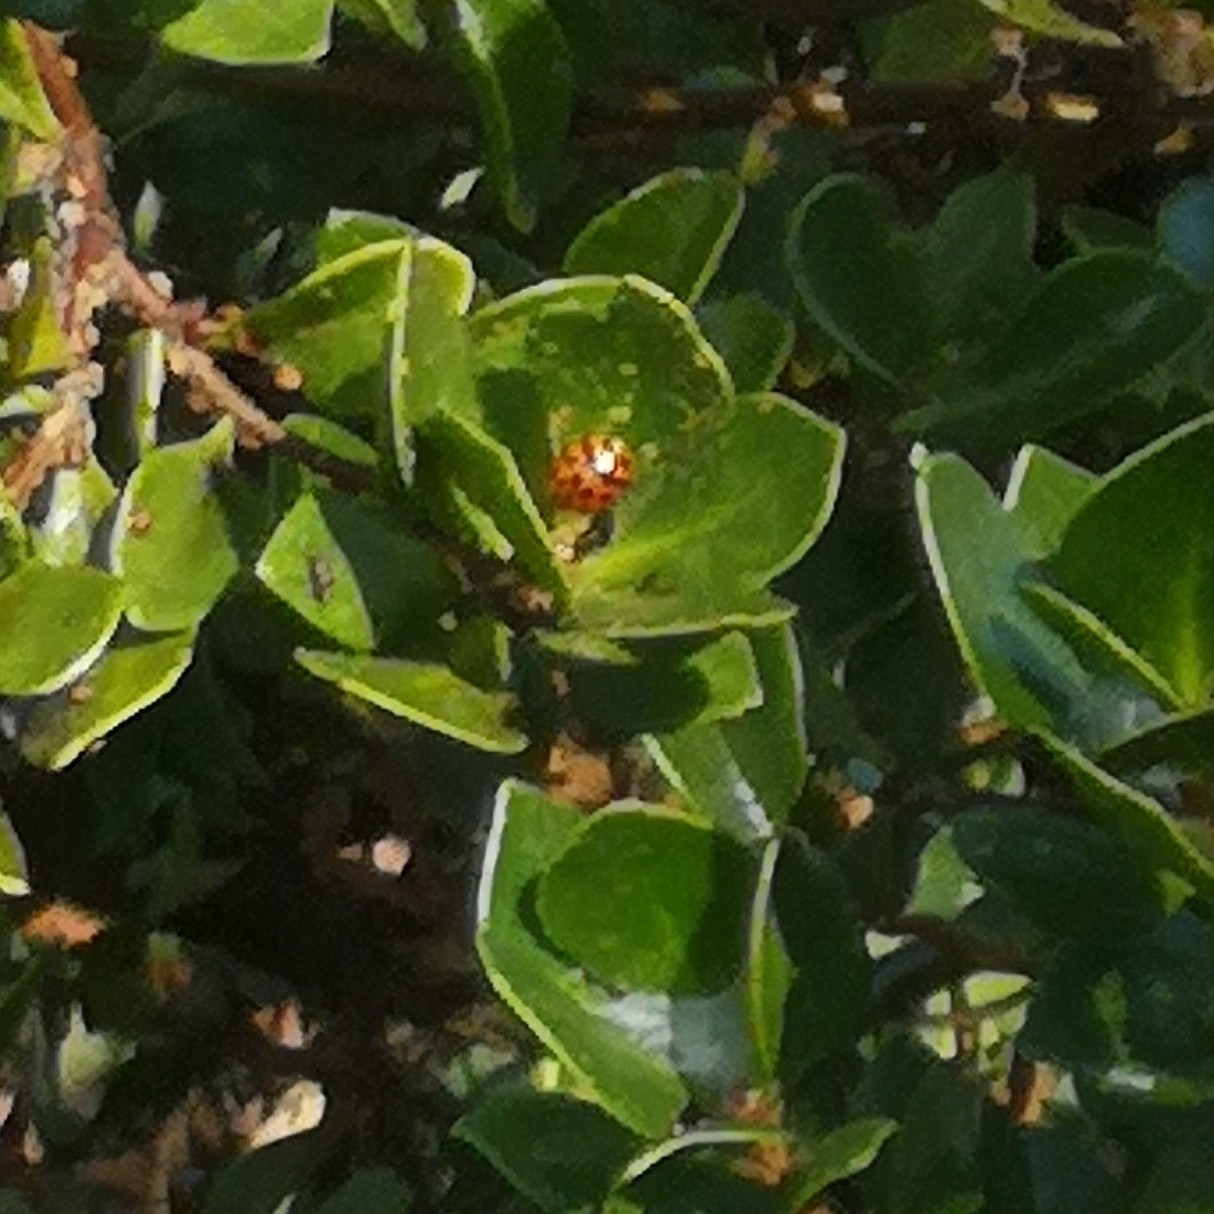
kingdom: Animalia
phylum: Arthropoda
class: Insecta
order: Coleoptera
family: Coccinellidae
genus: Harmonia
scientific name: Harmonia axyridis
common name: Harlequin ladybird
